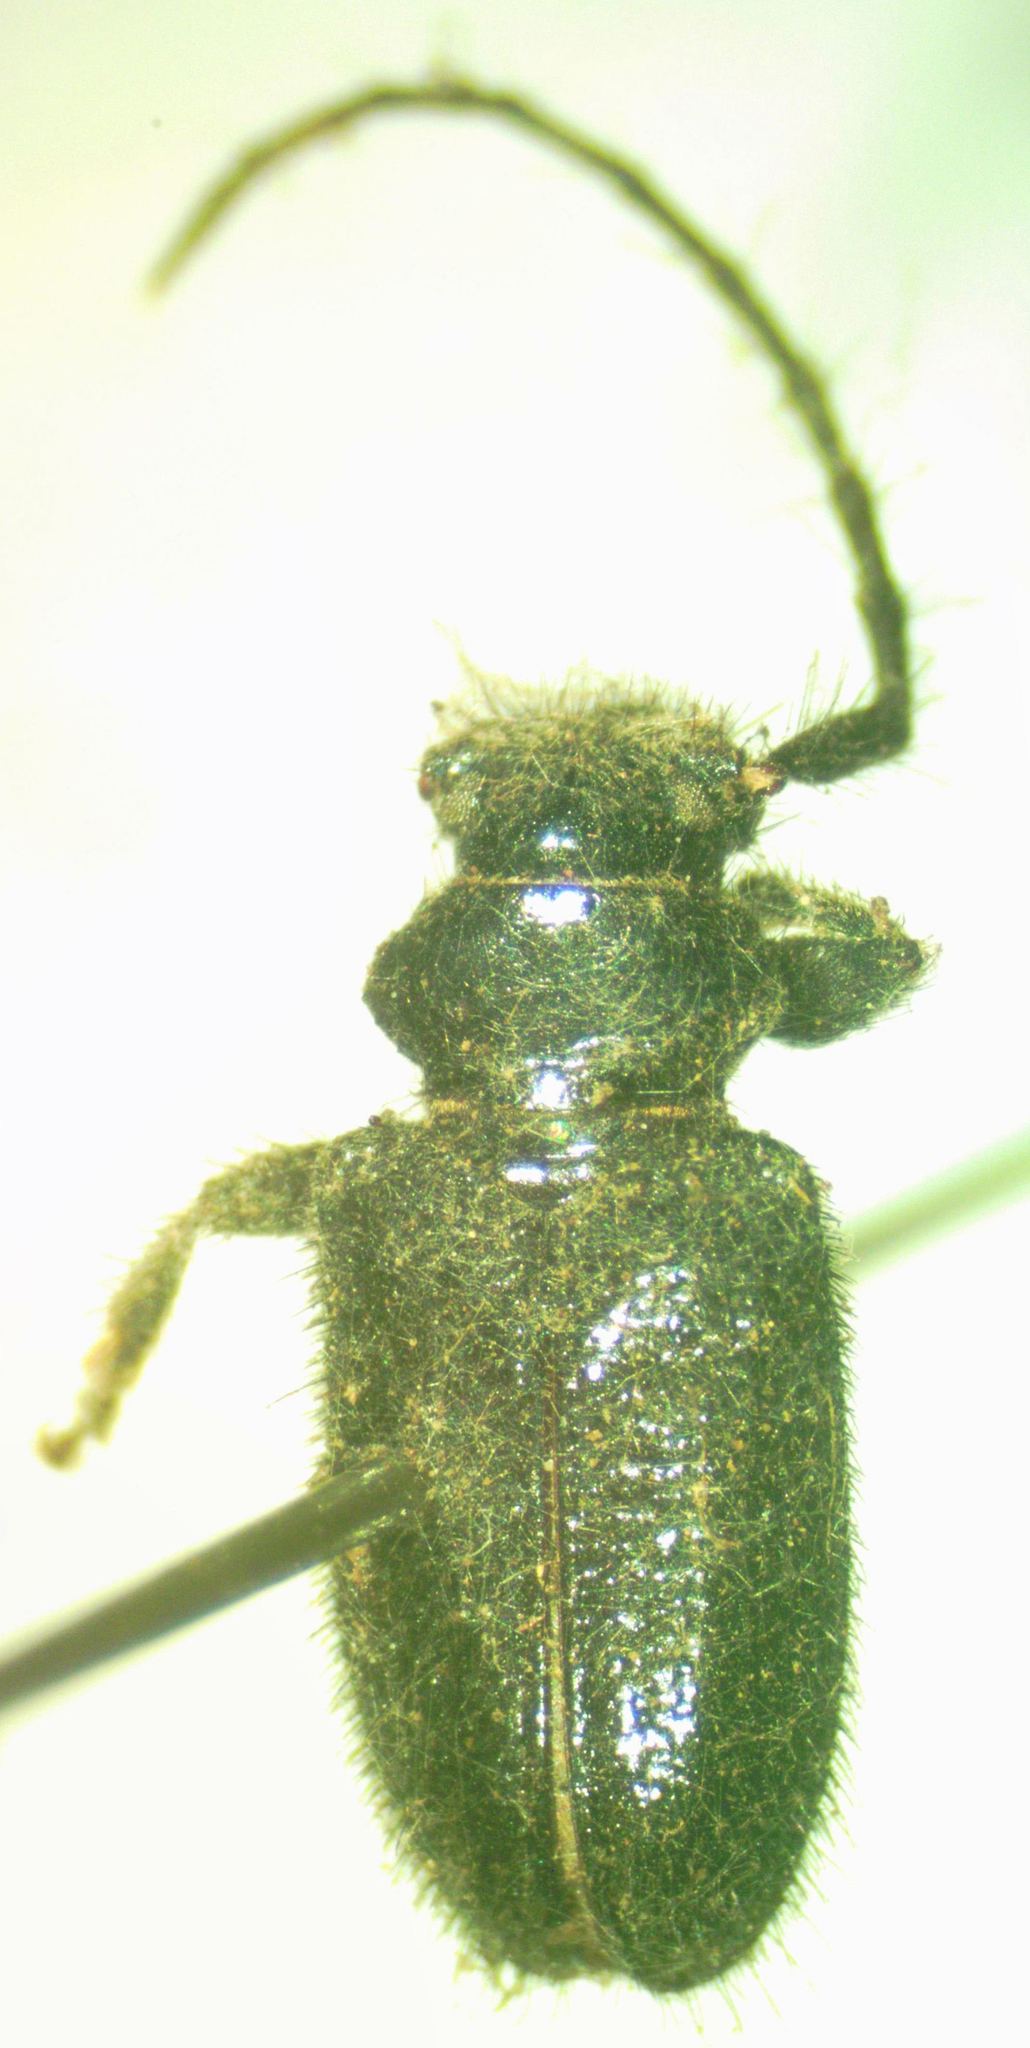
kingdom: Animalia
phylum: Arthropoda
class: Insecta
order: Coleoptera
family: Cerambycidae
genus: Tapeina
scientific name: Tapeina transversifrons
